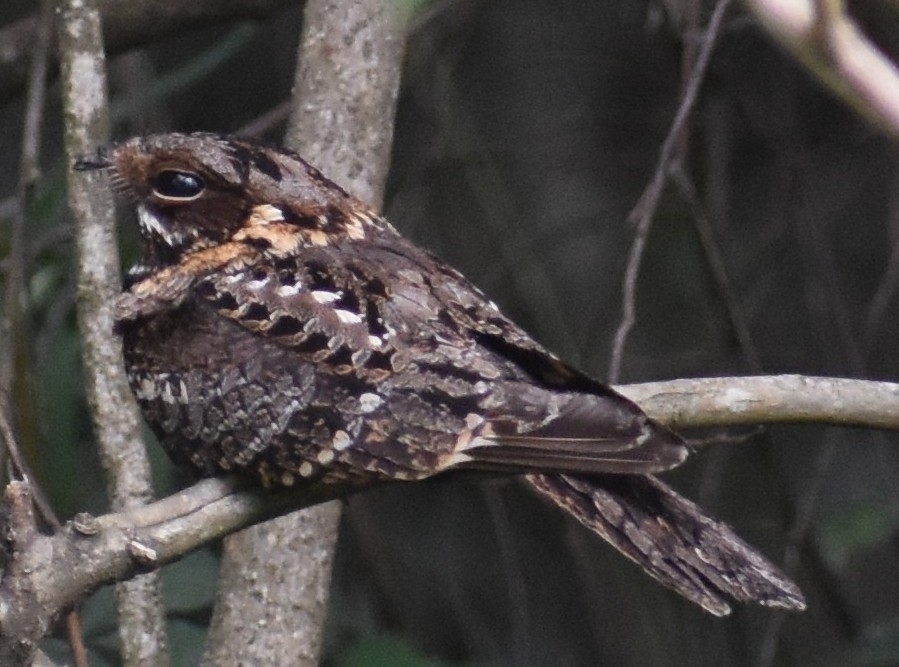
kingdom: Animalia
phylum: Chordata
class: Aves
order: Caprimulgiformes
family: Caprimulgidae
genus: Caprimulgus
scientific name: Caprimulgus pectoralis
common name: Fiery-necked nightjar
